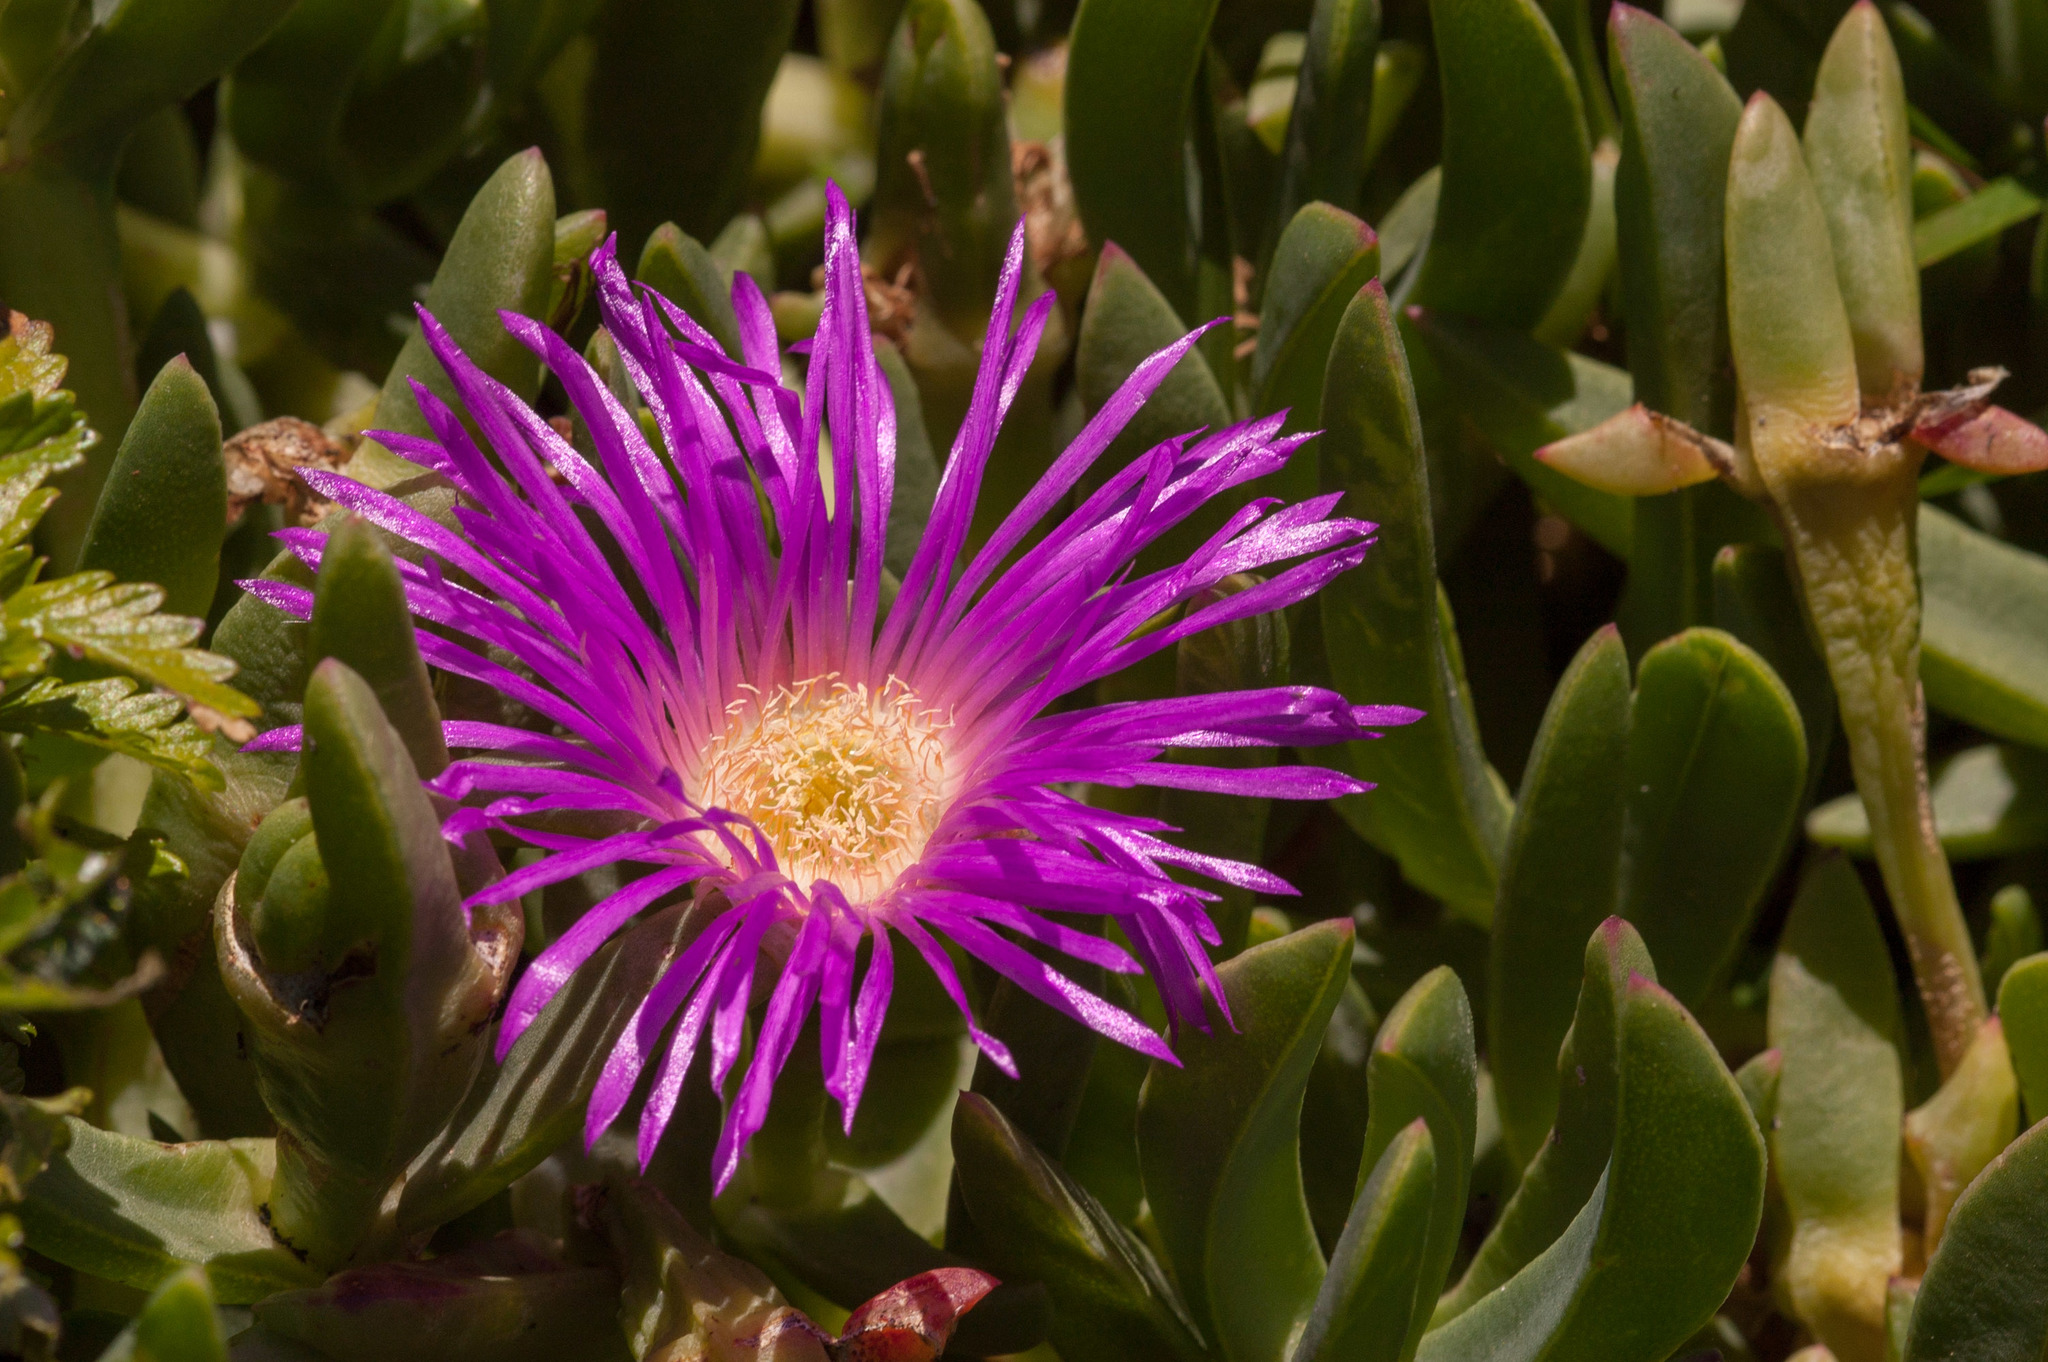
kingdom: Plantae
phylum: Tracheophyta
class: Magnoliopsida
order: Caryophyllales
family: Aizoaceae
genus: Carpobrotus
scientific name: Carpobrotus rossii
